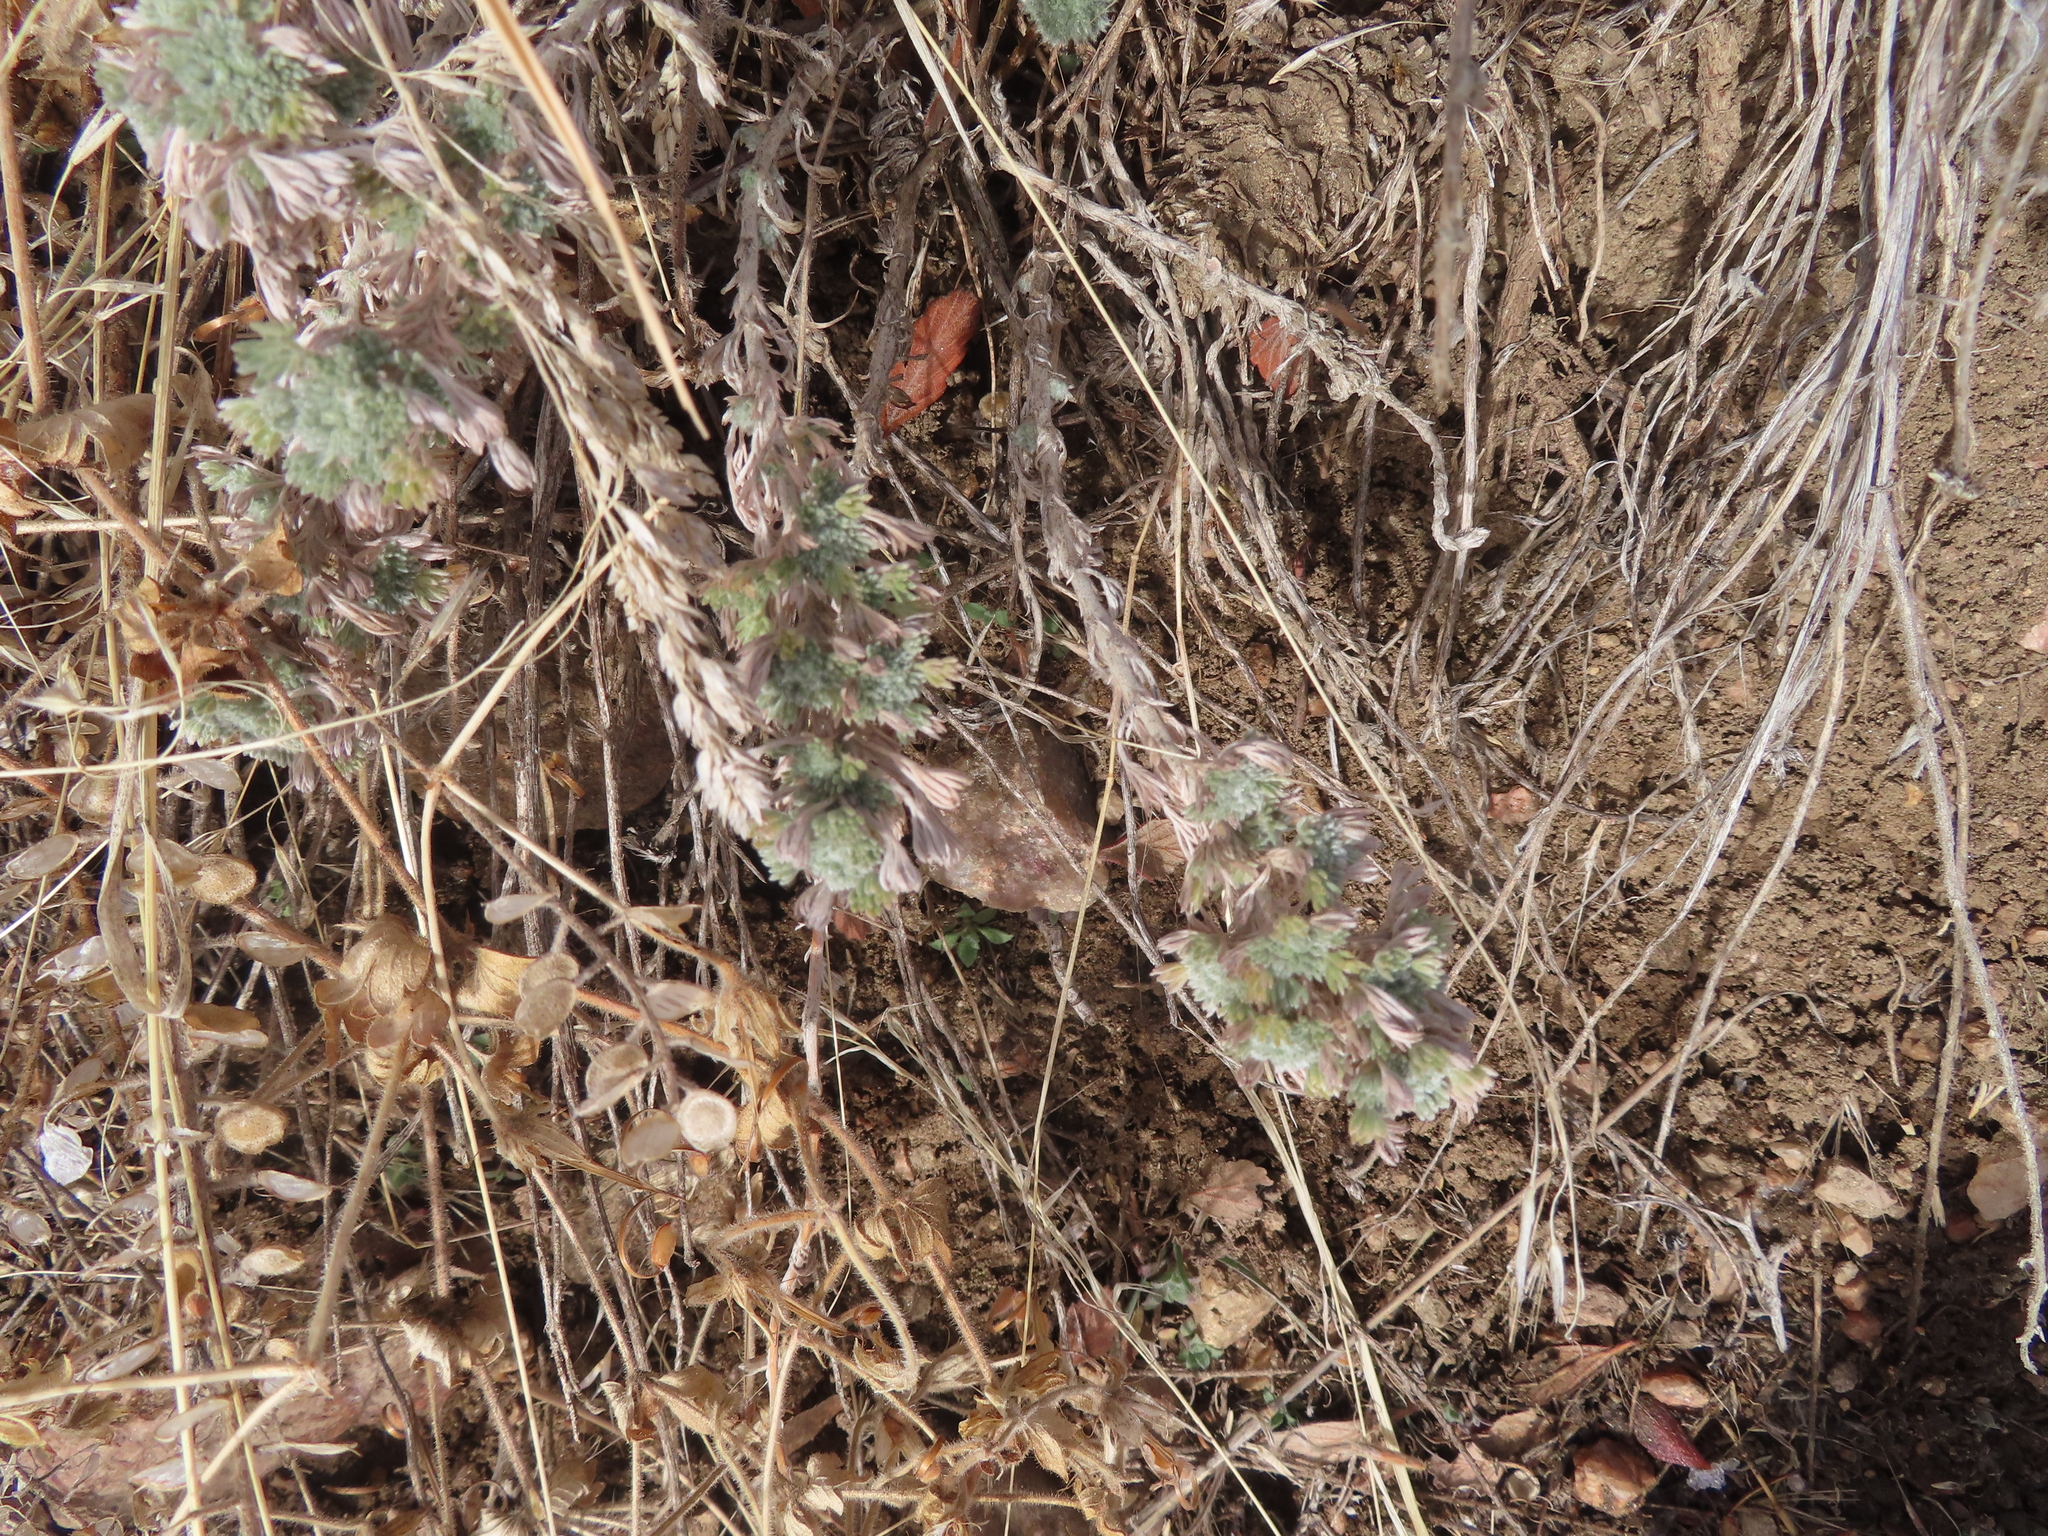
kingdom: Plantae
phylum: Tracheophyta
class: Magnoliopsida
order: Asterales
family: Asteraceae
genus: Artemisia
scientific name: Artemisia frigida
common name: Prairie sagewort
